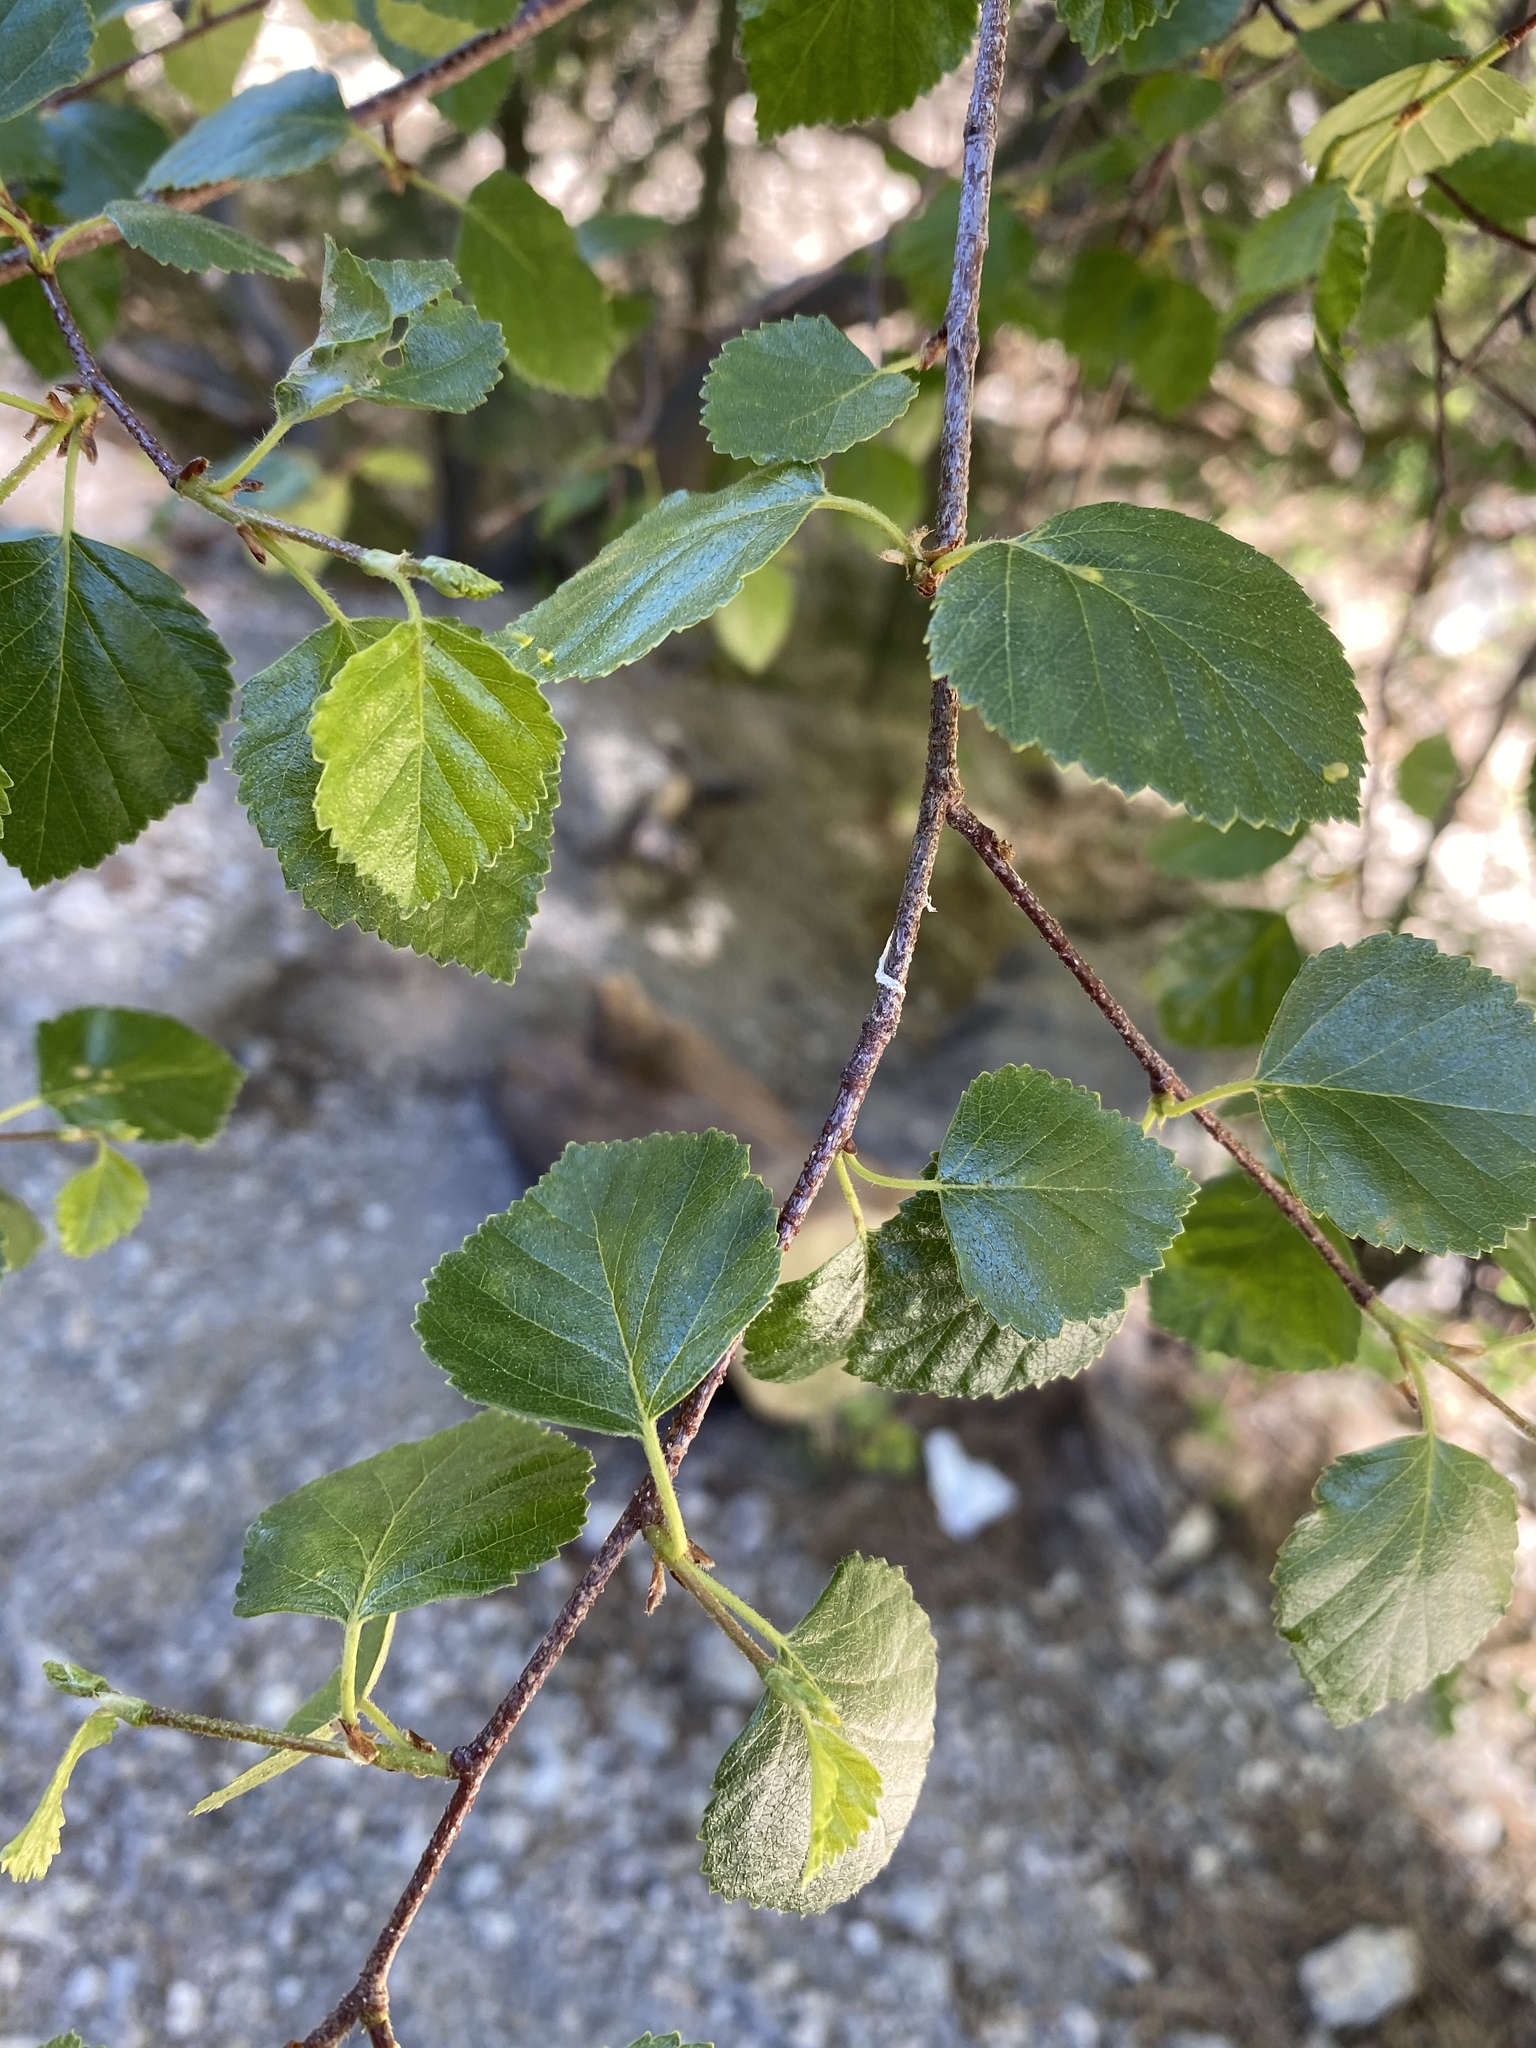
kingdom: Plantae
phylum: Tracheophyta
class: Magnoliopsida
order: Fagales
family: Betulaceae
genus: Betula
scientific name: Betula occidentalis
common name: River birch
